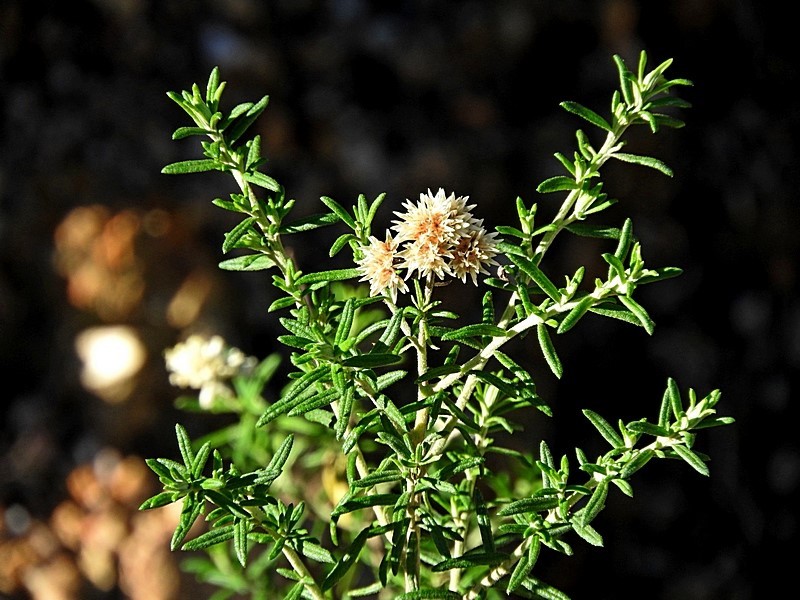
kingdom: Plantae
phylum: Tracheophyta
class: Magnoliopsida
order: Asterales
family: Asteraceae
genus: Cassinia
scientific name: Cassinia aculeata
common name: Australian tauhinu
